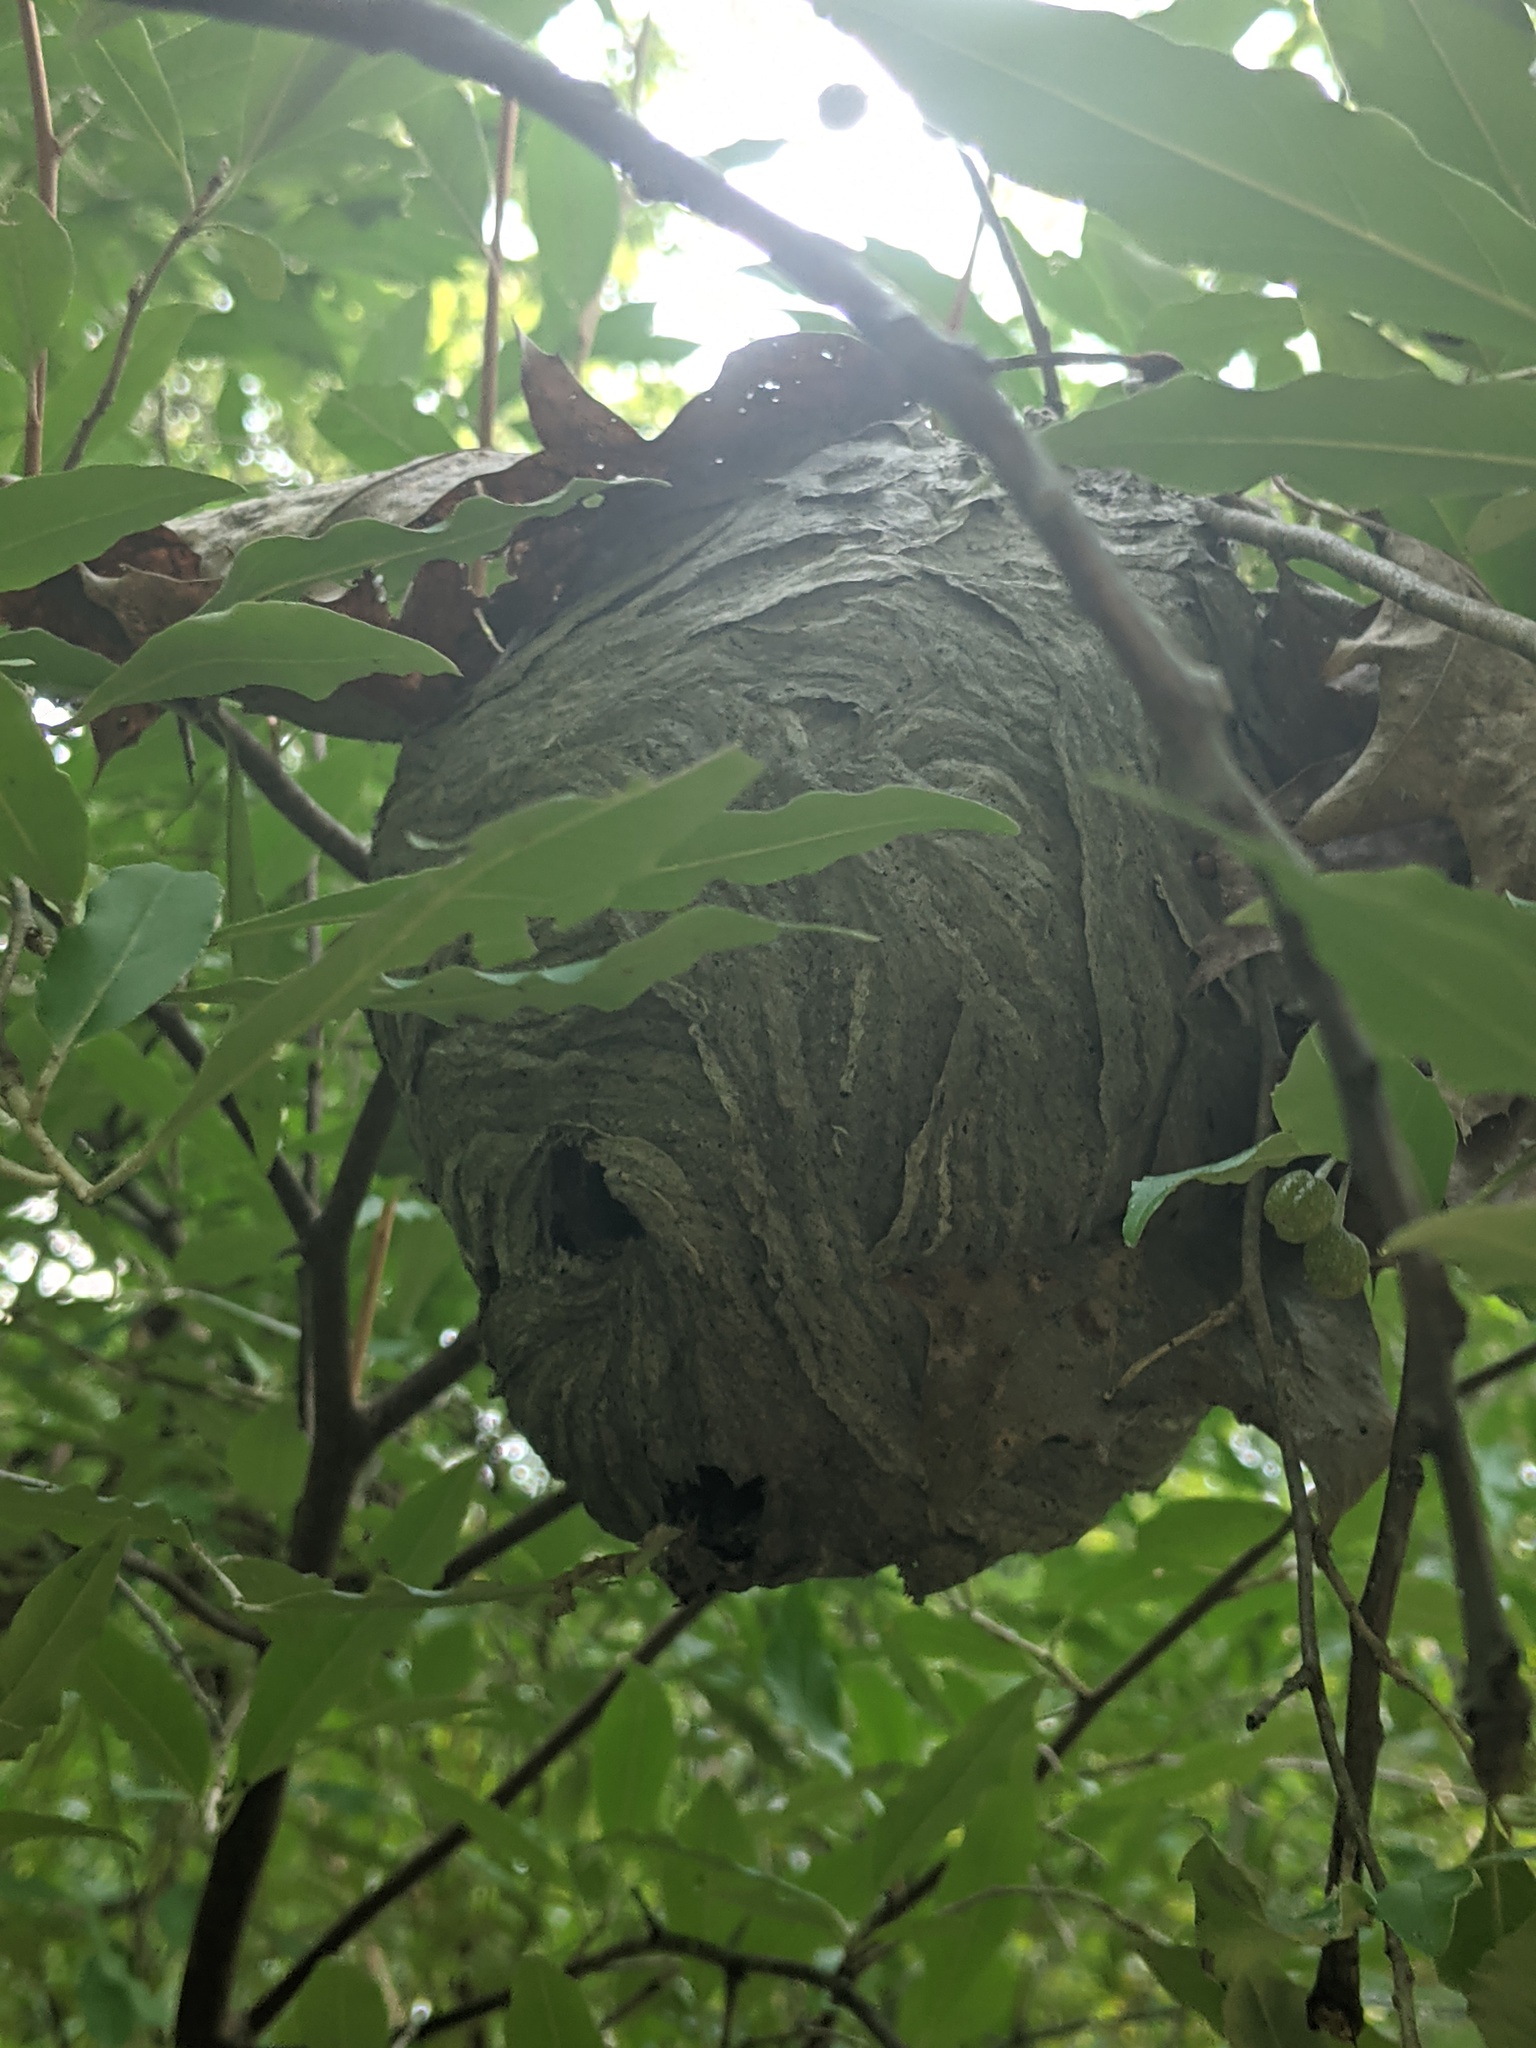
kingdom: Animalia
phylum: Arthropoda
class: Insecta
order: Hymenoptera
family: Vespidae
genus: Dolichovespula
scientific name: Dolichovespula
